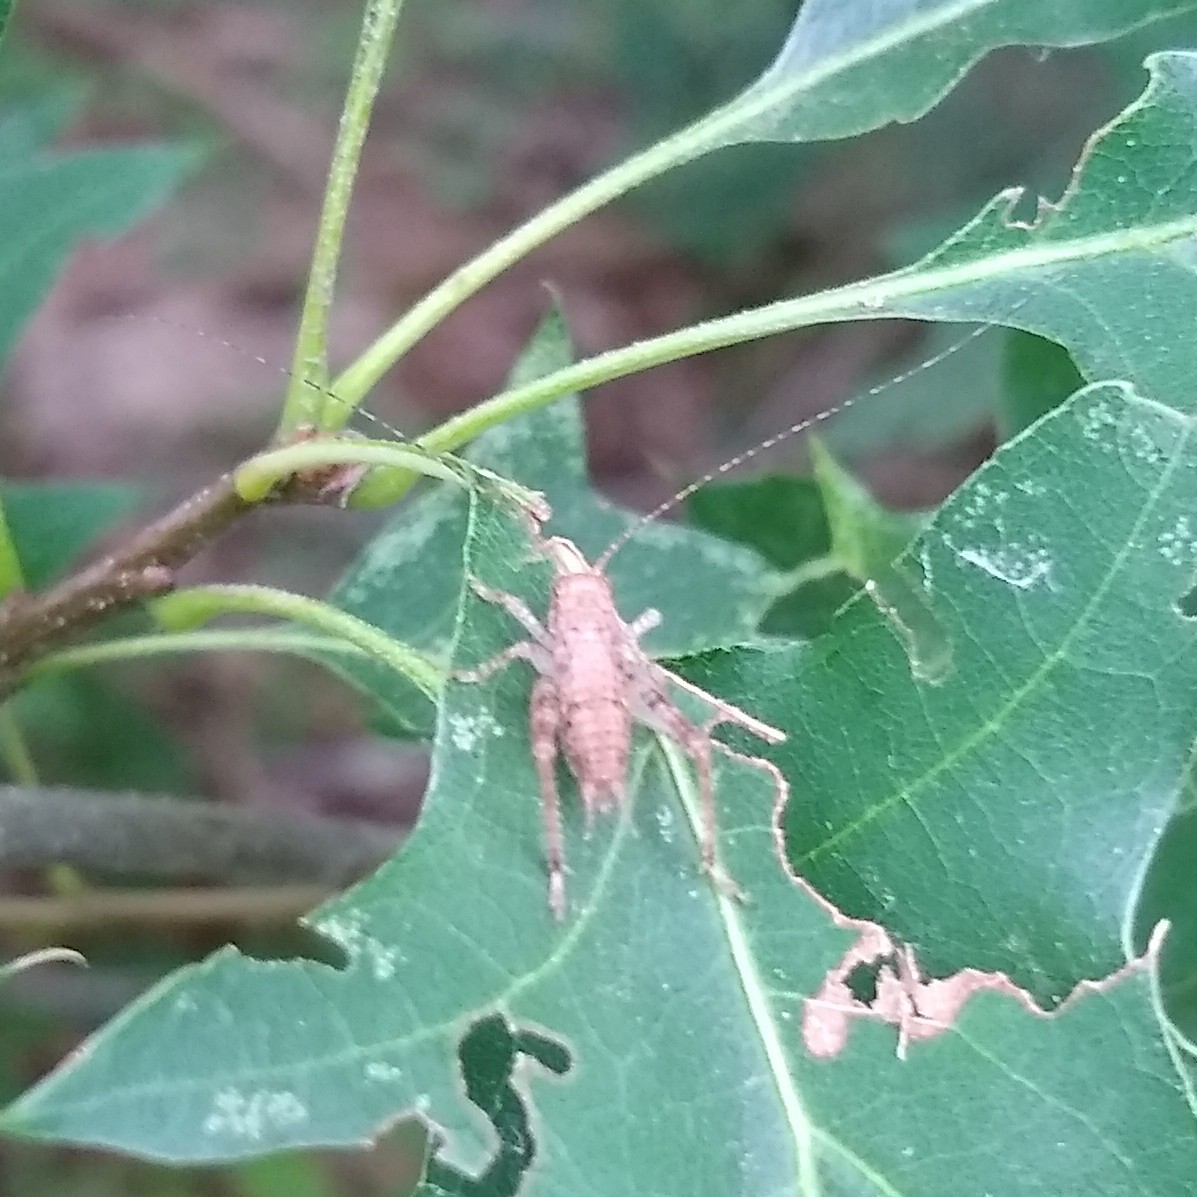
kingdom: Animalia
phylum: Arthropoda
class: Insecta
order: Orthoptera
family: Gryllidae
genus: Hapithus
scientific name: Hapithus saltator
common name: Jumping bush cricket
